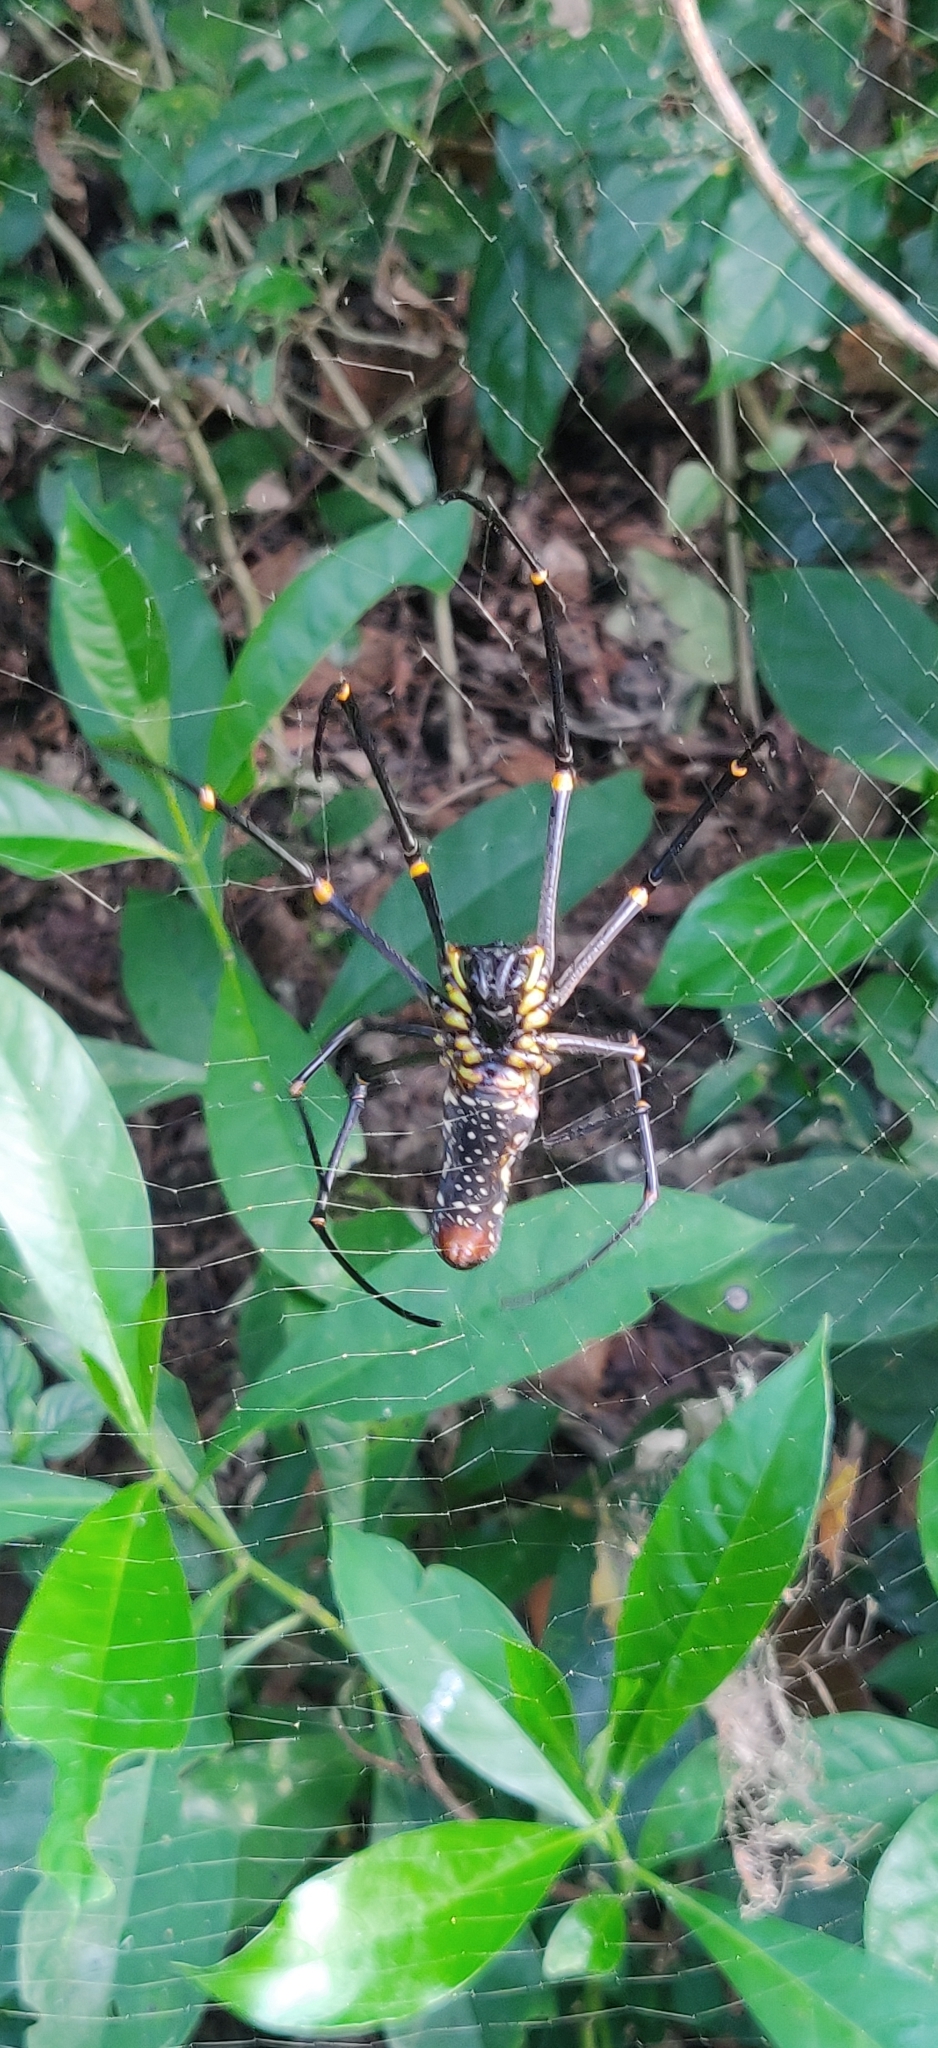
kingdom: Animalia
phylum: Arthropoda
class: Arachnida
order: Araneae
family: Araneidae
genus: Nephila
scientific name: Nephila pilipes
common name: Giant golden orb weaver
